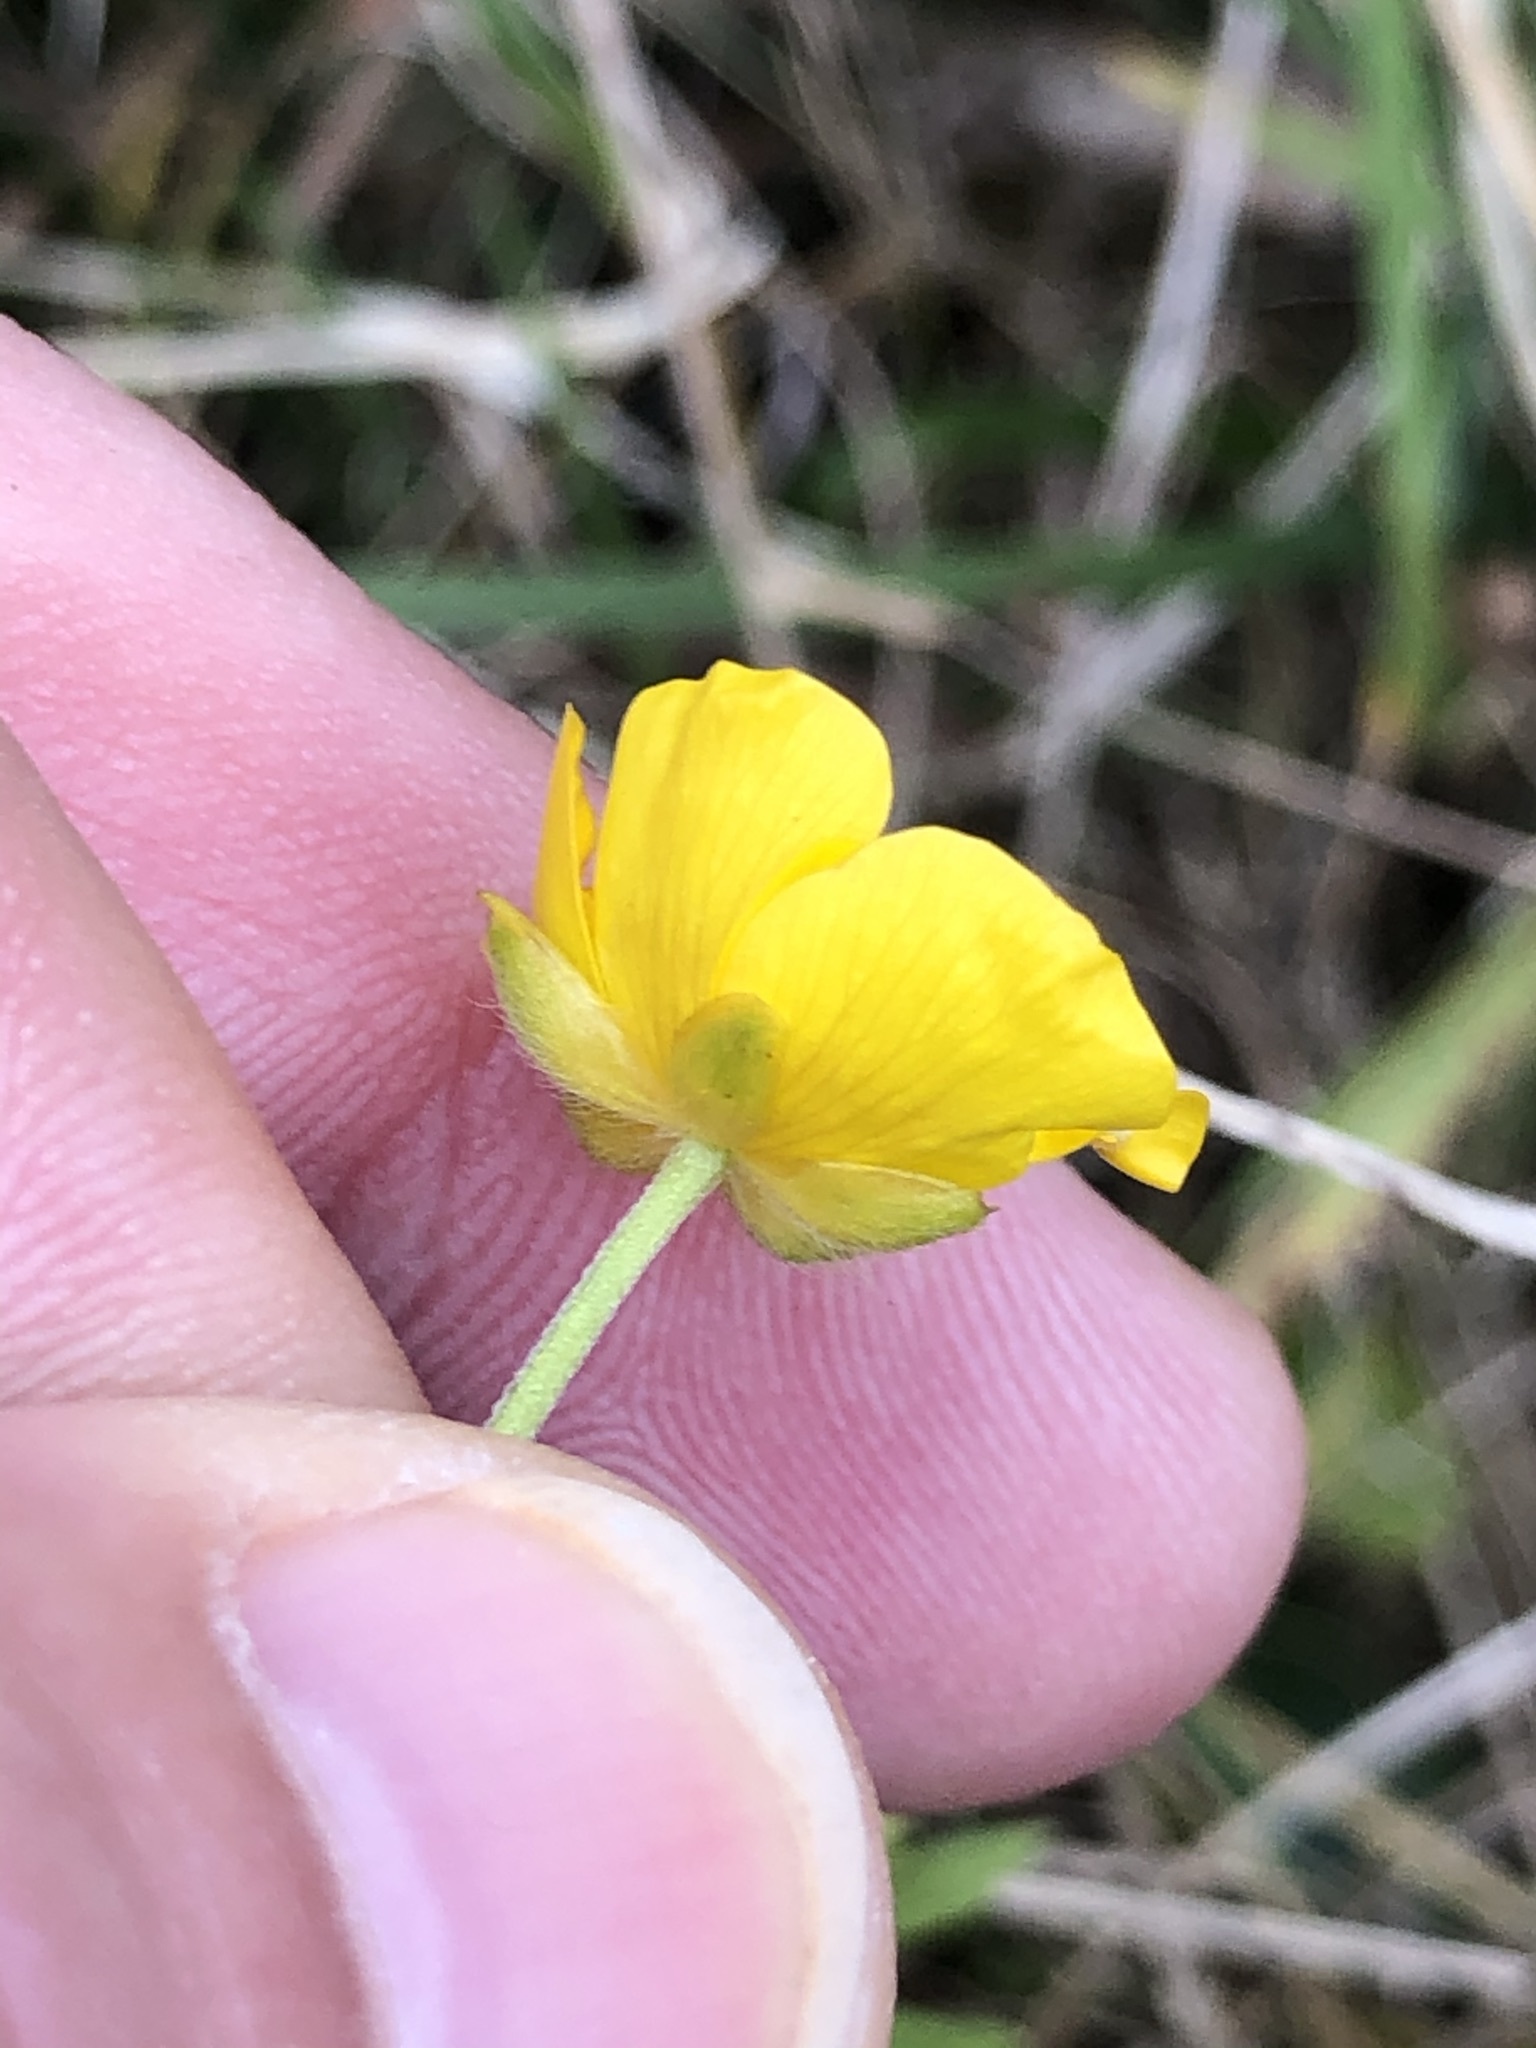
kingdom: Plantae
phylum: Tracheophyta
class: Magnoliopsida
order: Ranunculales
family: Ranunculaceae
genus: Ranunculus
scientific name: Ranunculus acris
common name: Meadow buttercup
